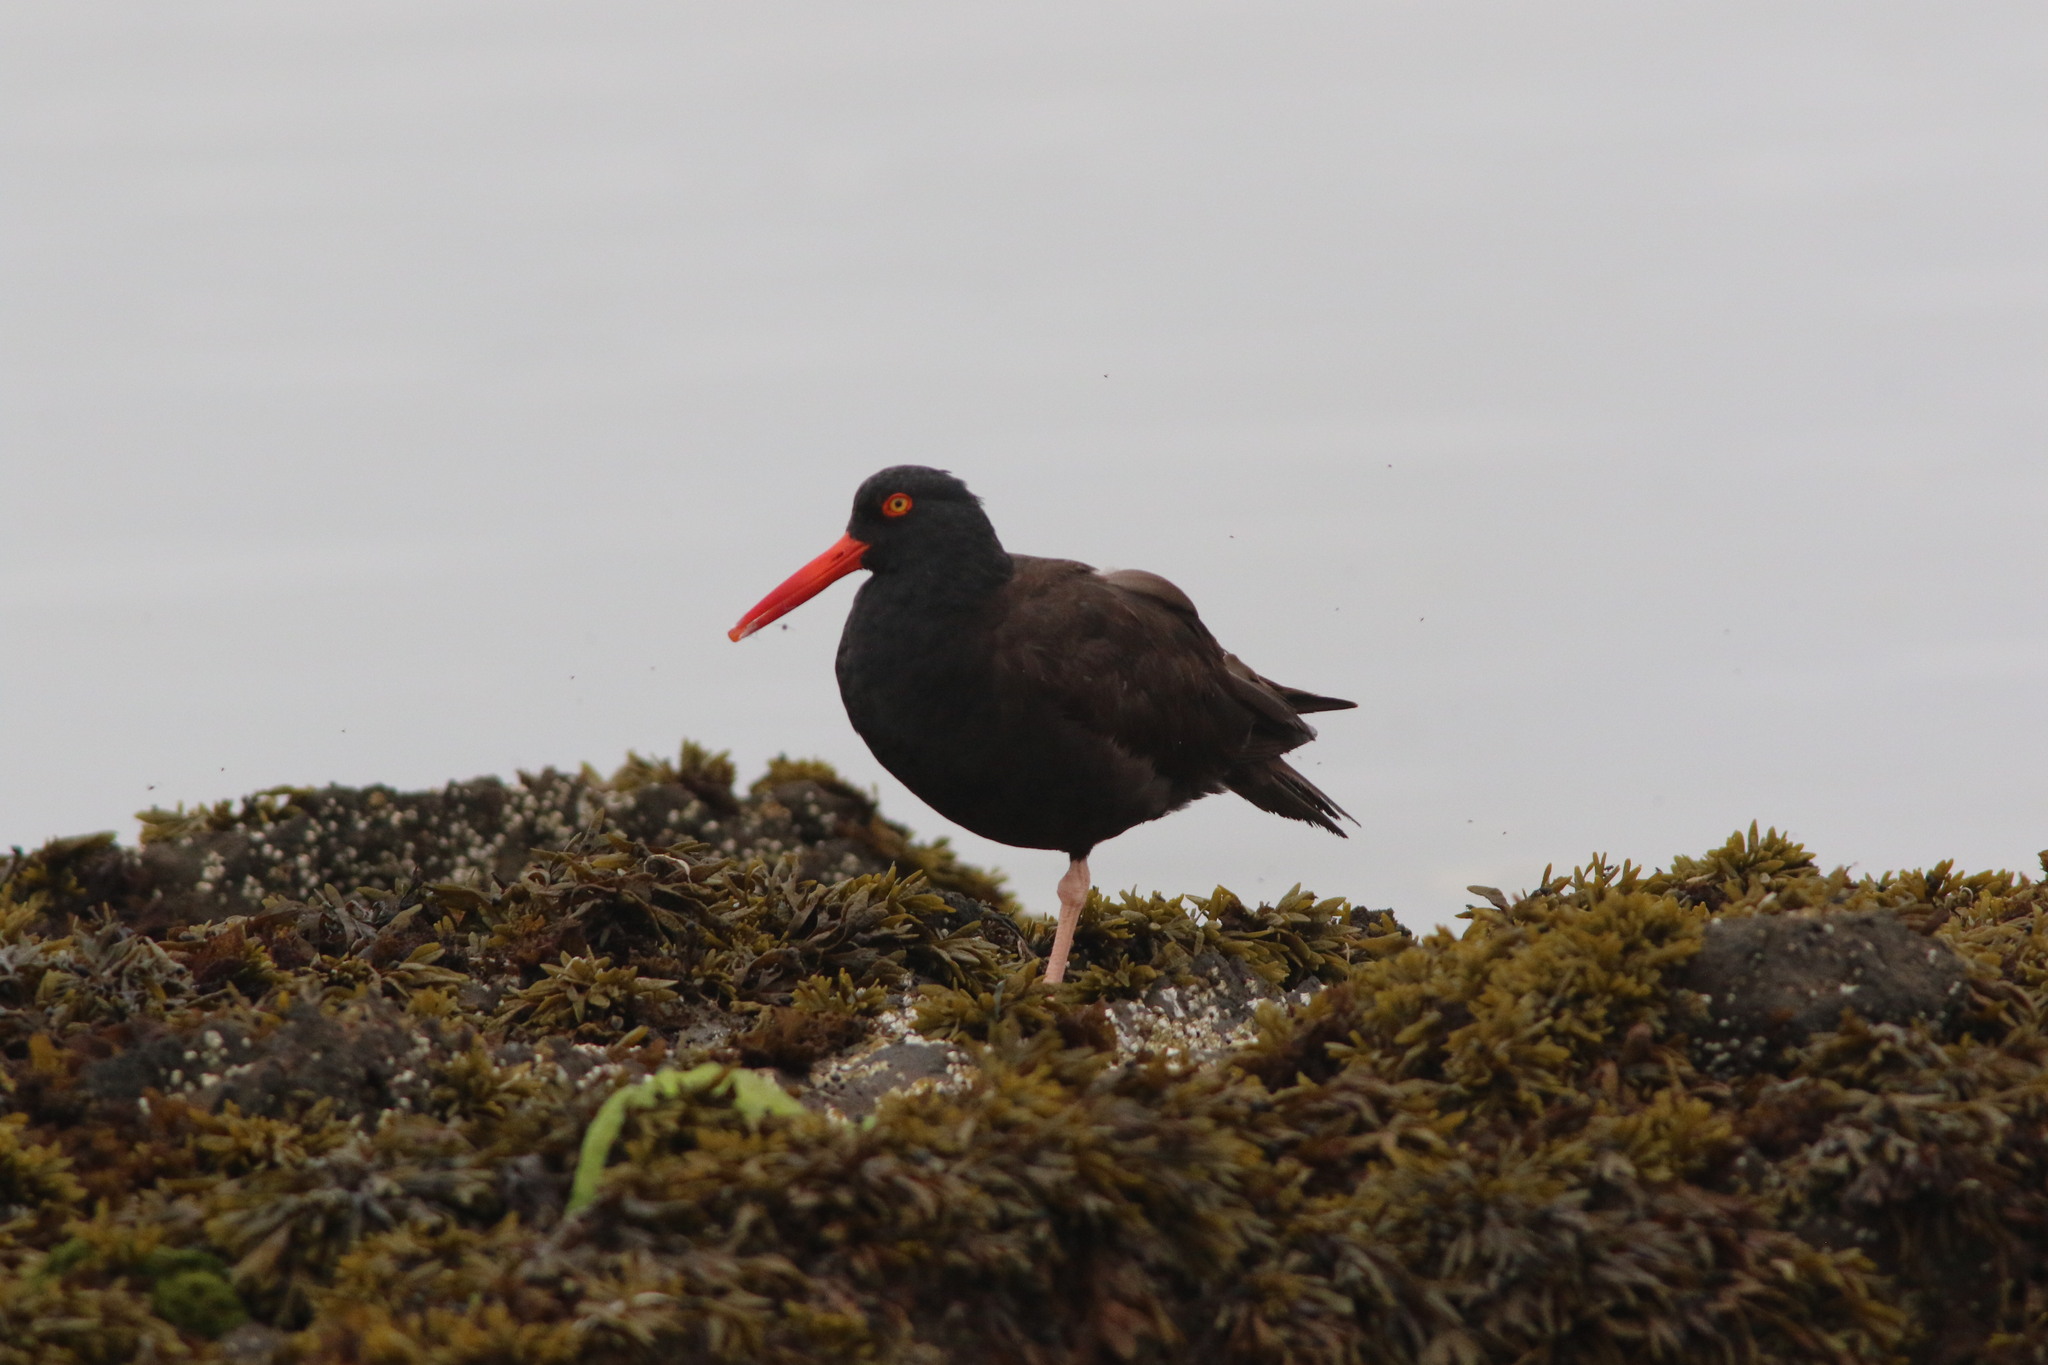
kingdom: Animalia
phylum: Chordata
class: Aves
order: Charadriiformes
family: Haematopodidae
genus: Haematopus
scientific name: Haematopus bachmani
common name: Black oystercatcher
